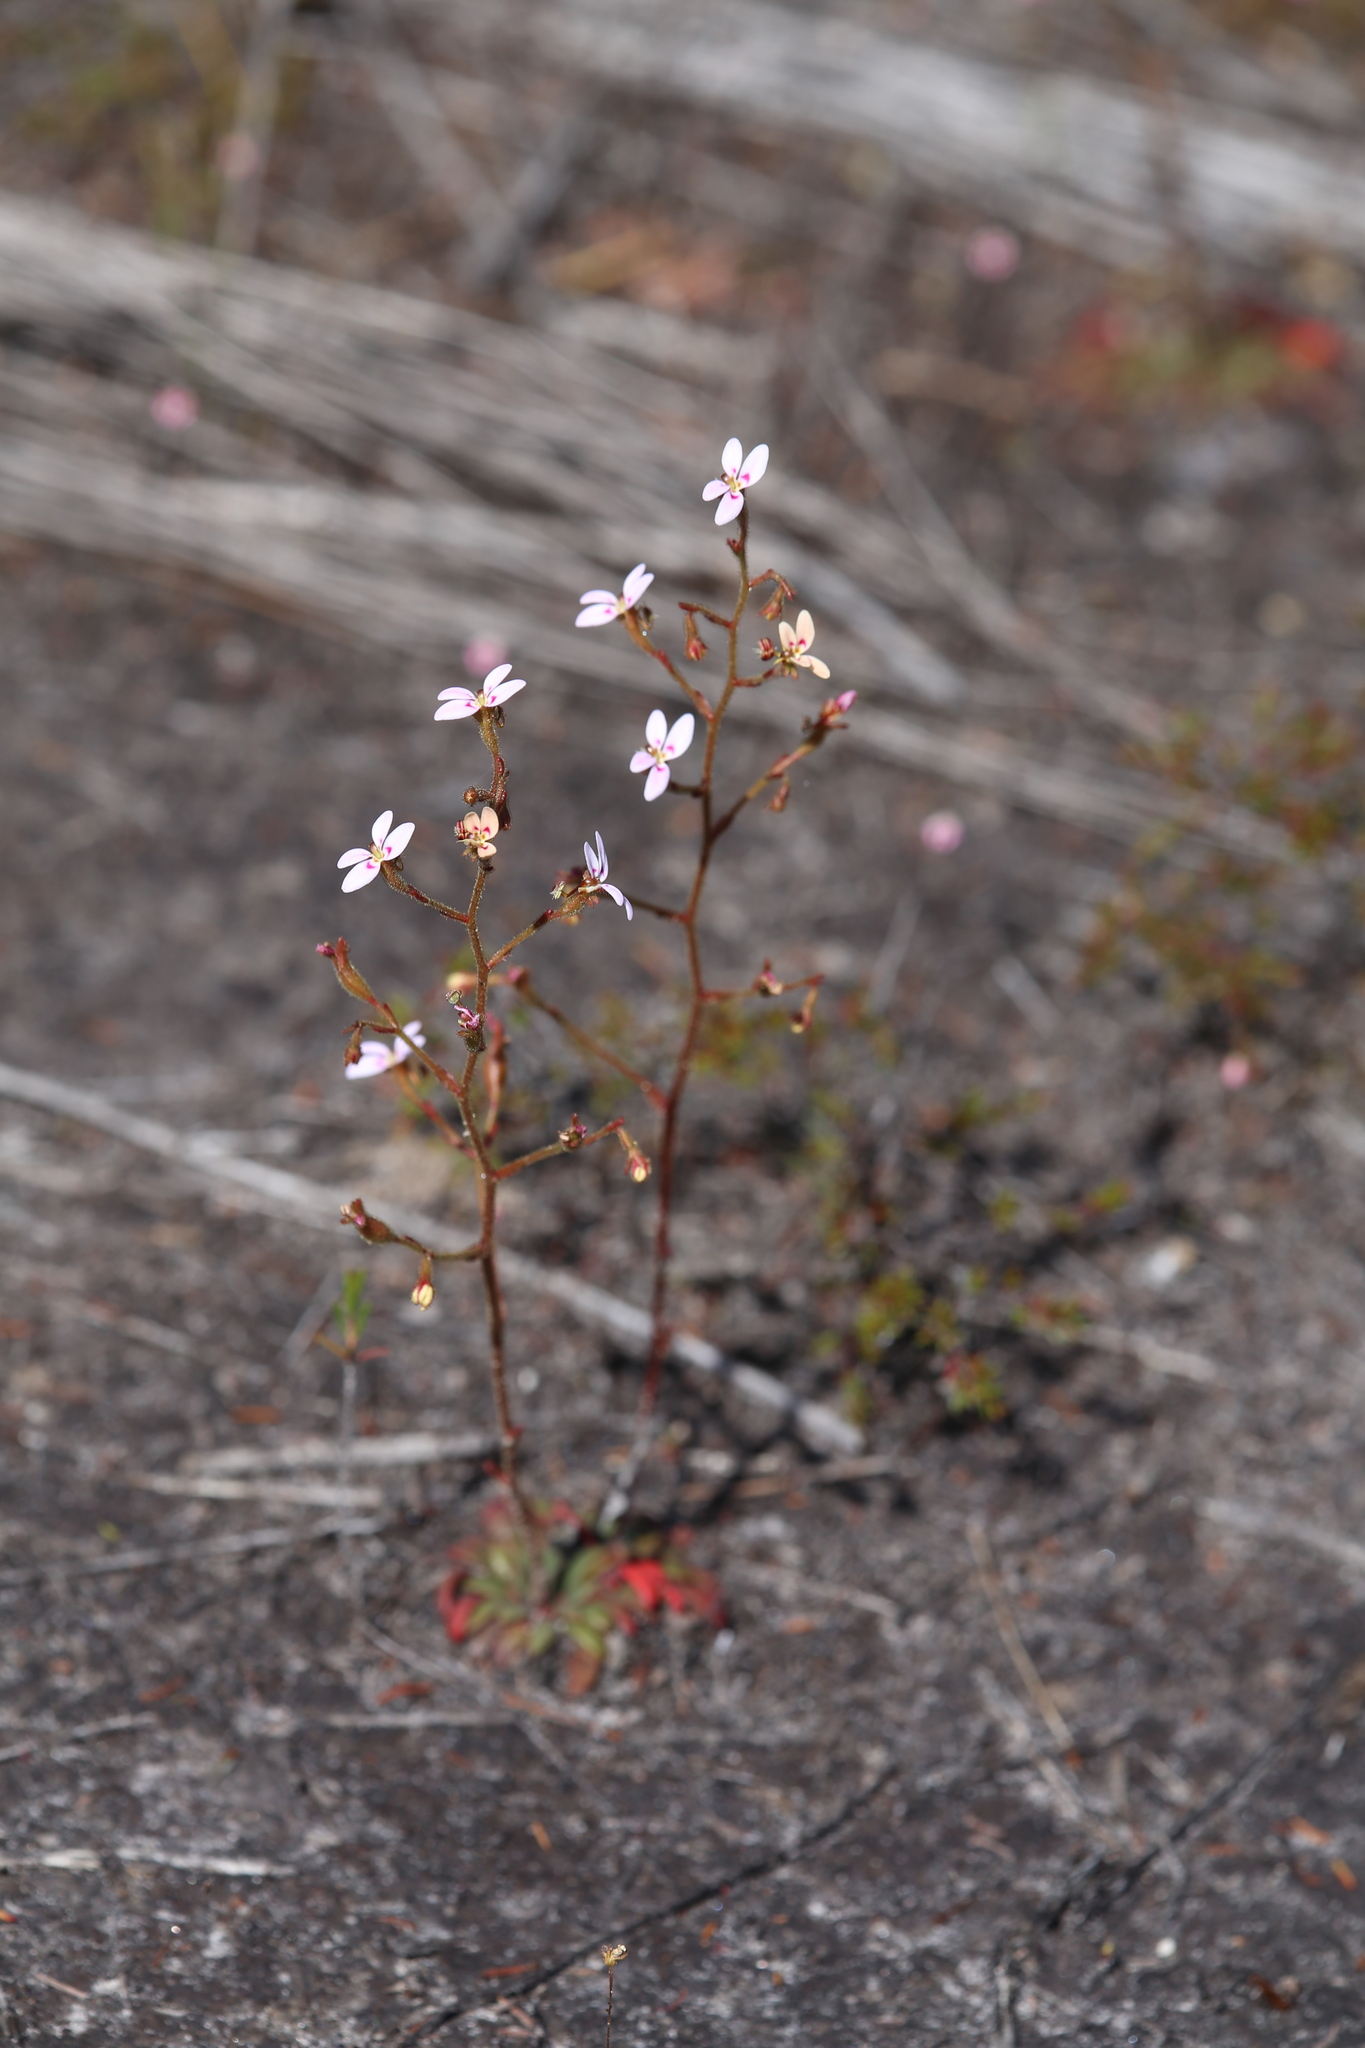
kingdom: Plantae
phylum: Tracheophyta
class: Magnoliopsida
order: Asterales
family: Stylidiaceae
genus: Stylidium
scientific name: Stylidium assimile
